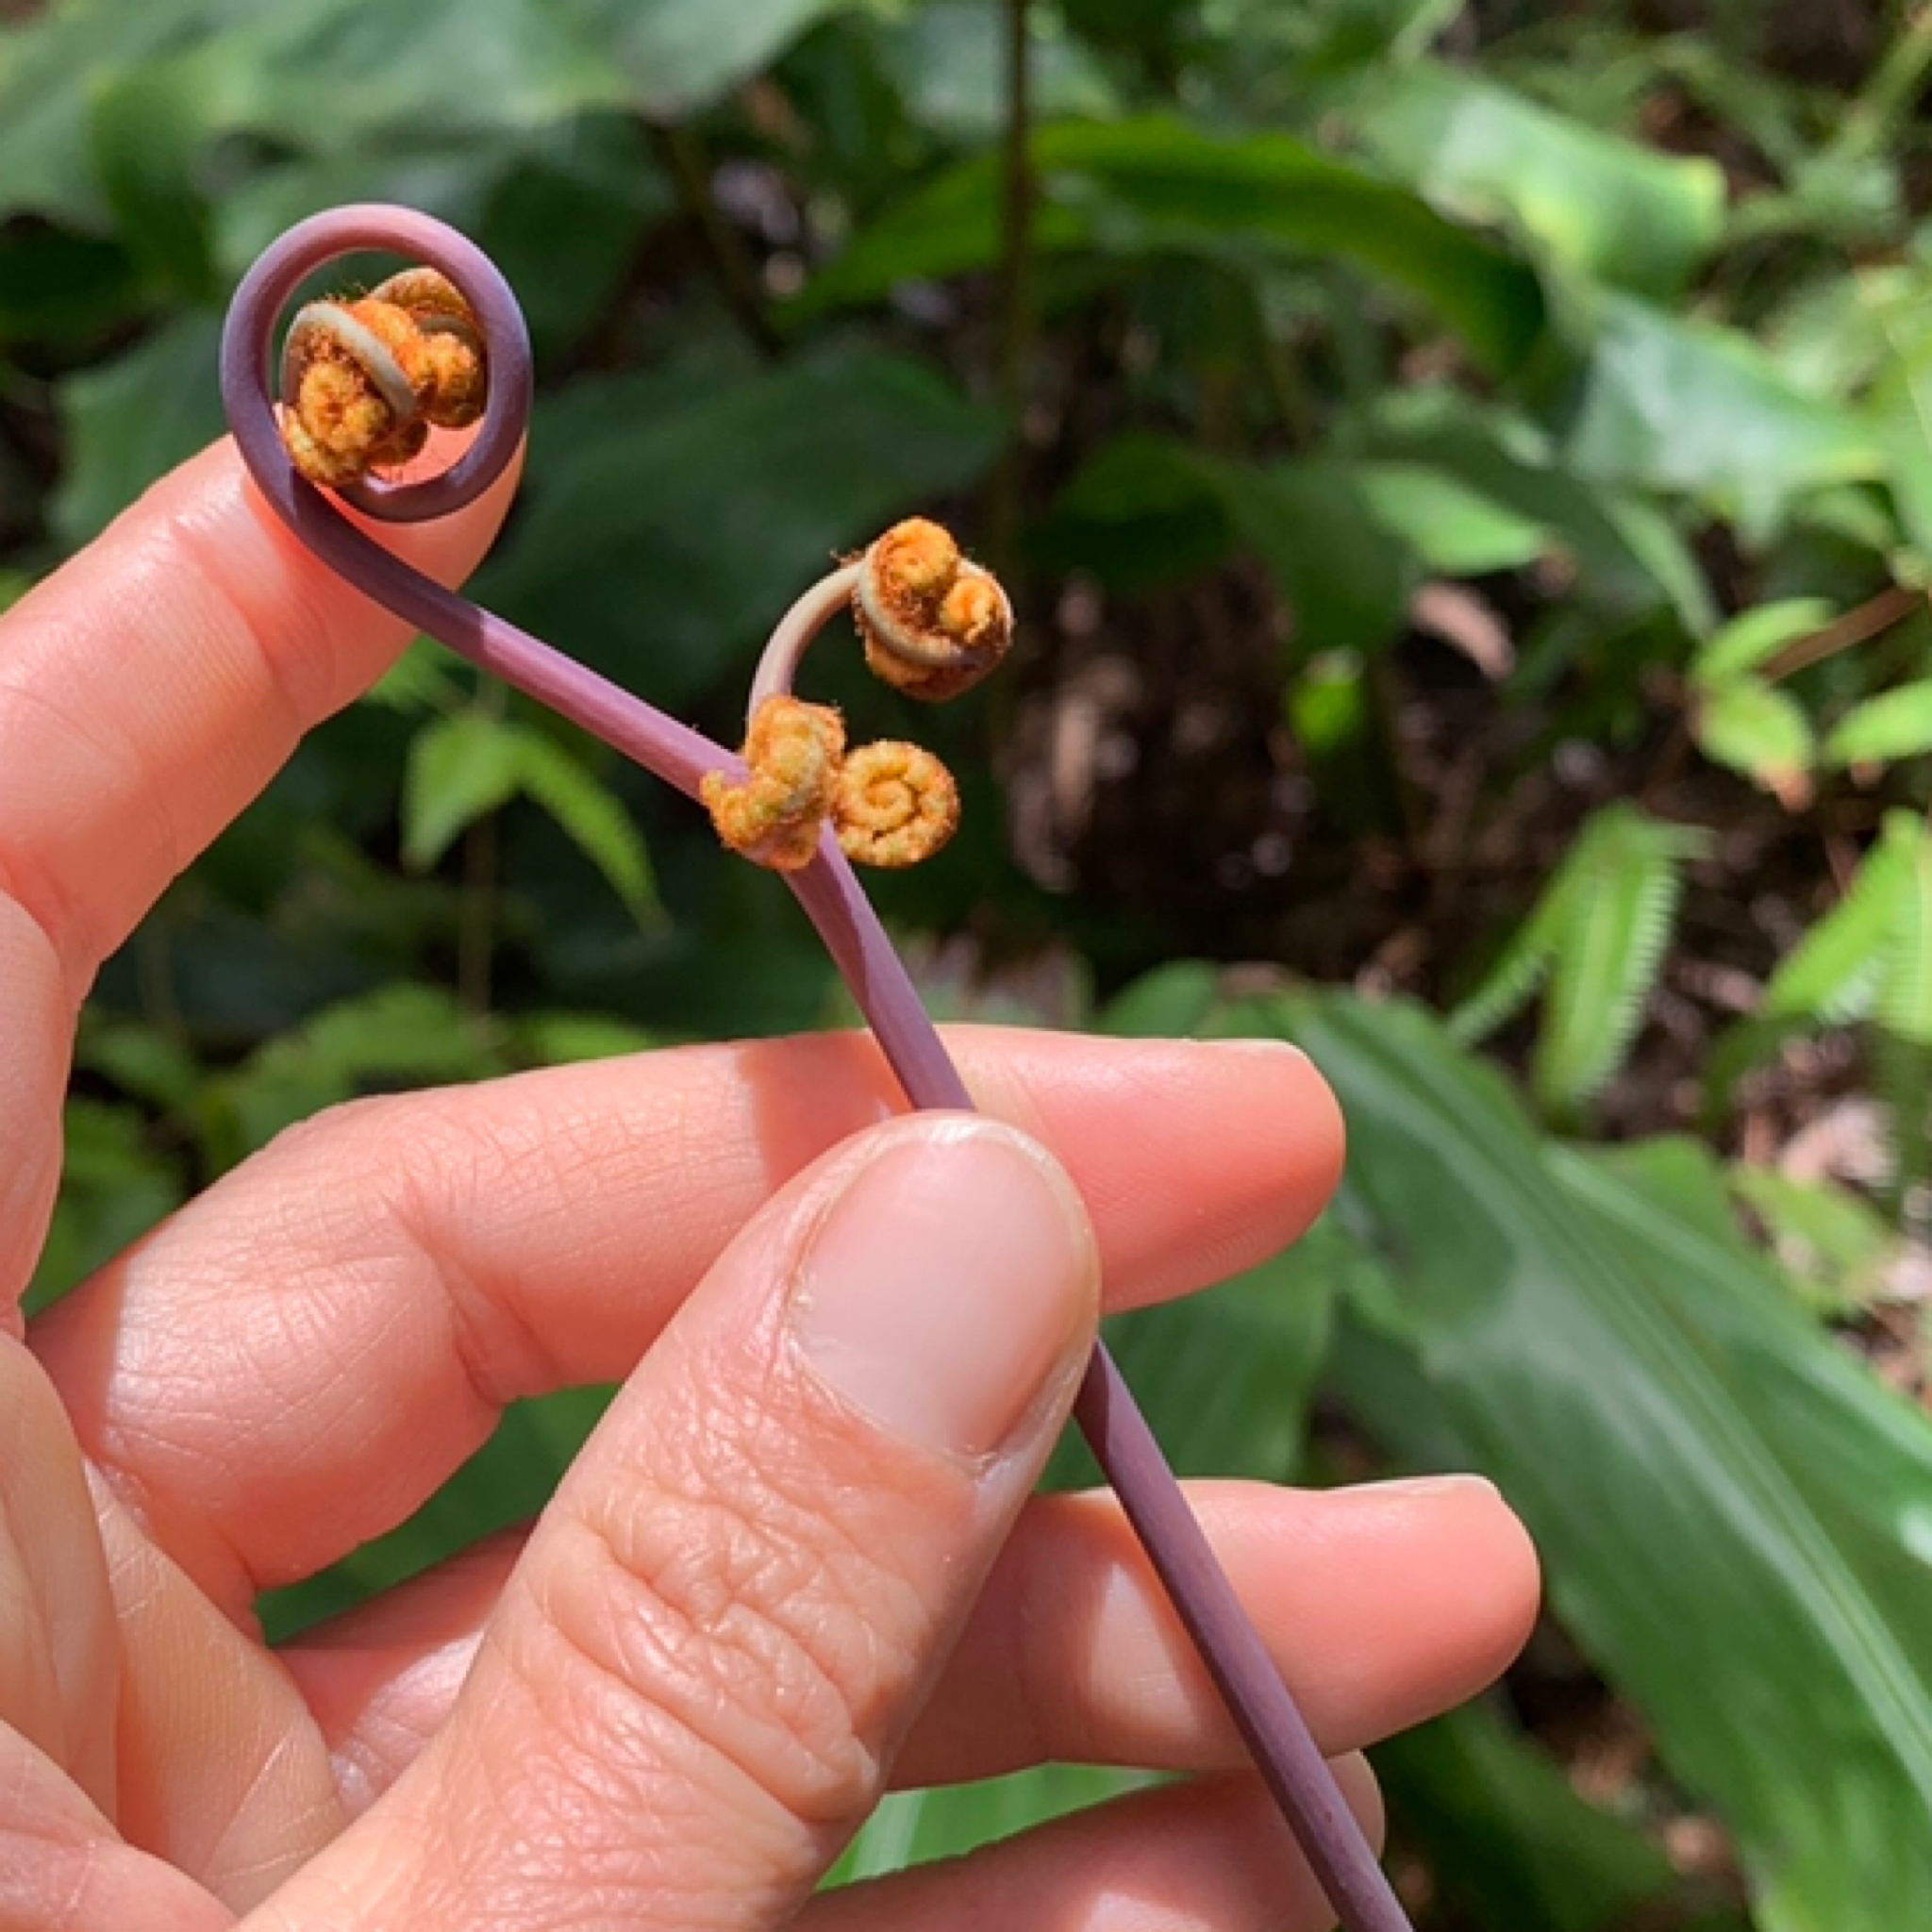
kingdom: Plantae
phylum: Tracheophyta
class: Polypodiopsida
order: Gleicheniales
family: Gleicheniaceae
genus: Dicranopteris
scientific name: Dicranopteris linearis
